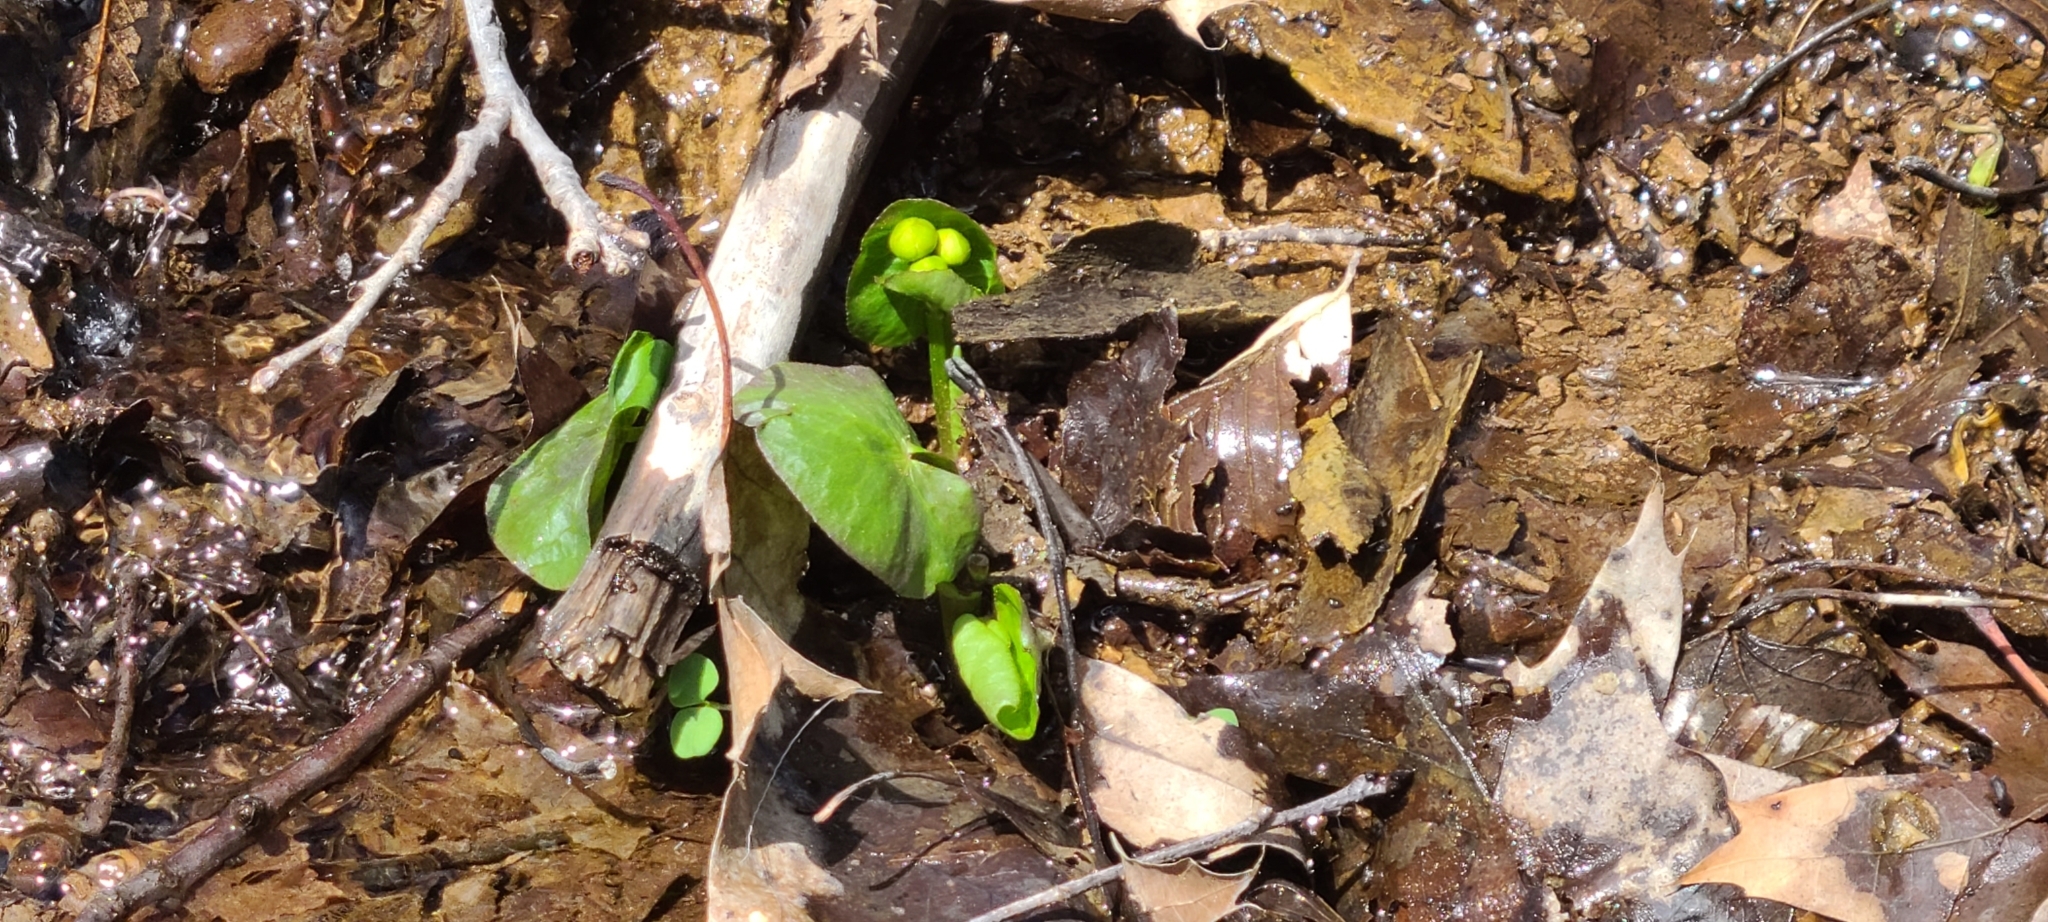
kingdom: Plantae
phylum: Tracheophyta
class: Magnoliopsida
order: Ranunculales
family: Ranunculaceae
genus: Caltha
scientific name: Caltha palustris
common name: Marsh marigold
